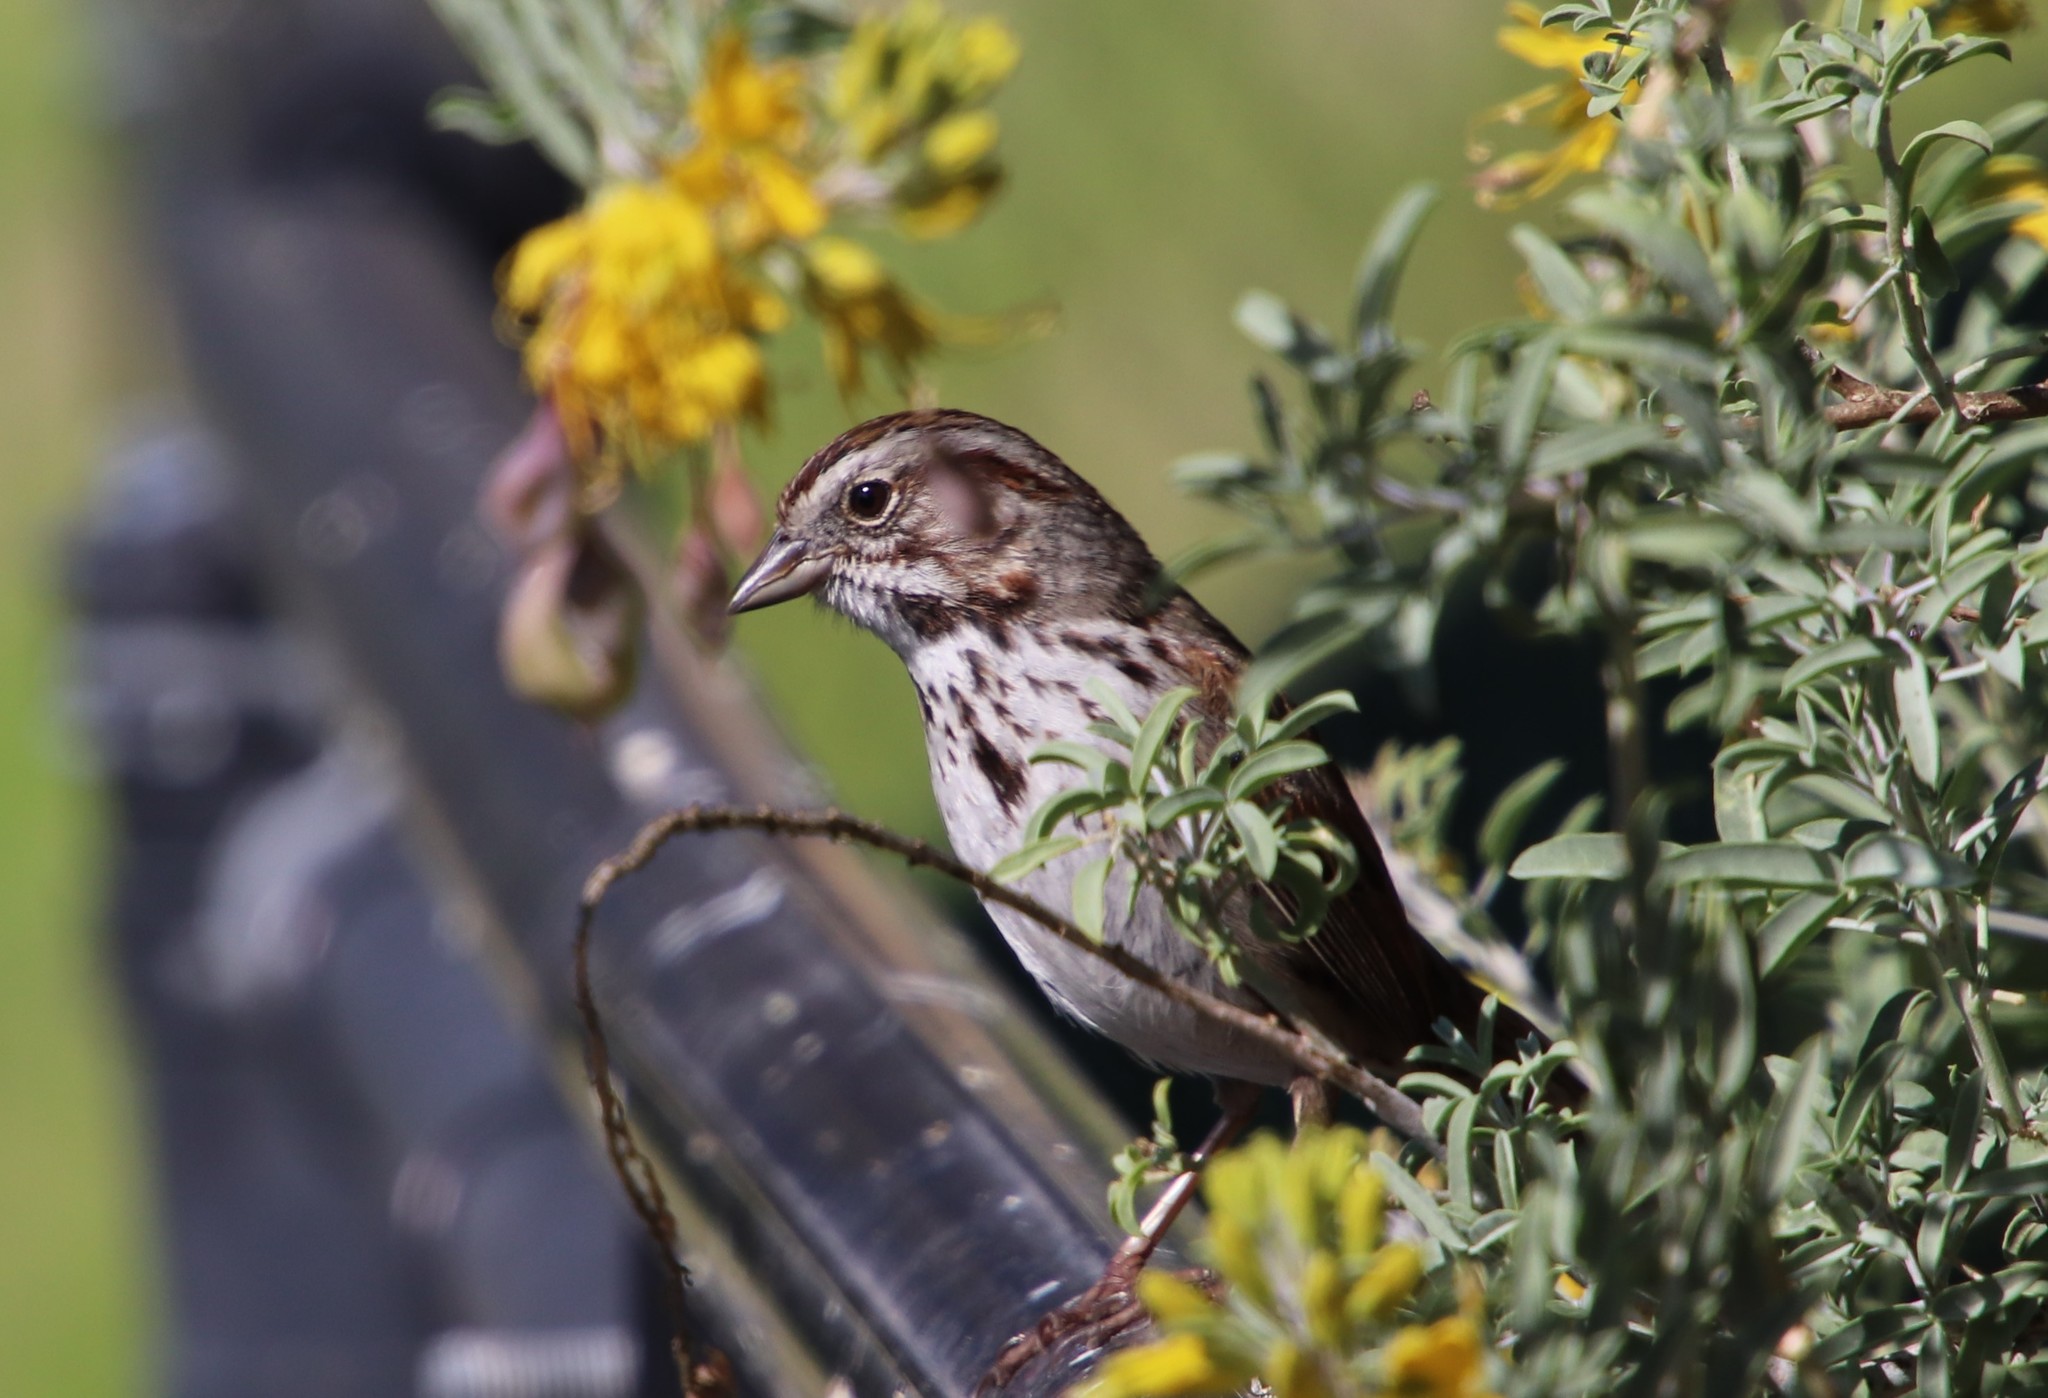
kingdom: Animalia
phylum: Chordata
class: Aves
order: Passeriformes
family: Passerellidae
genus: Melospiza
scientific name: Melospiza melodia
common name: Song sparrow
